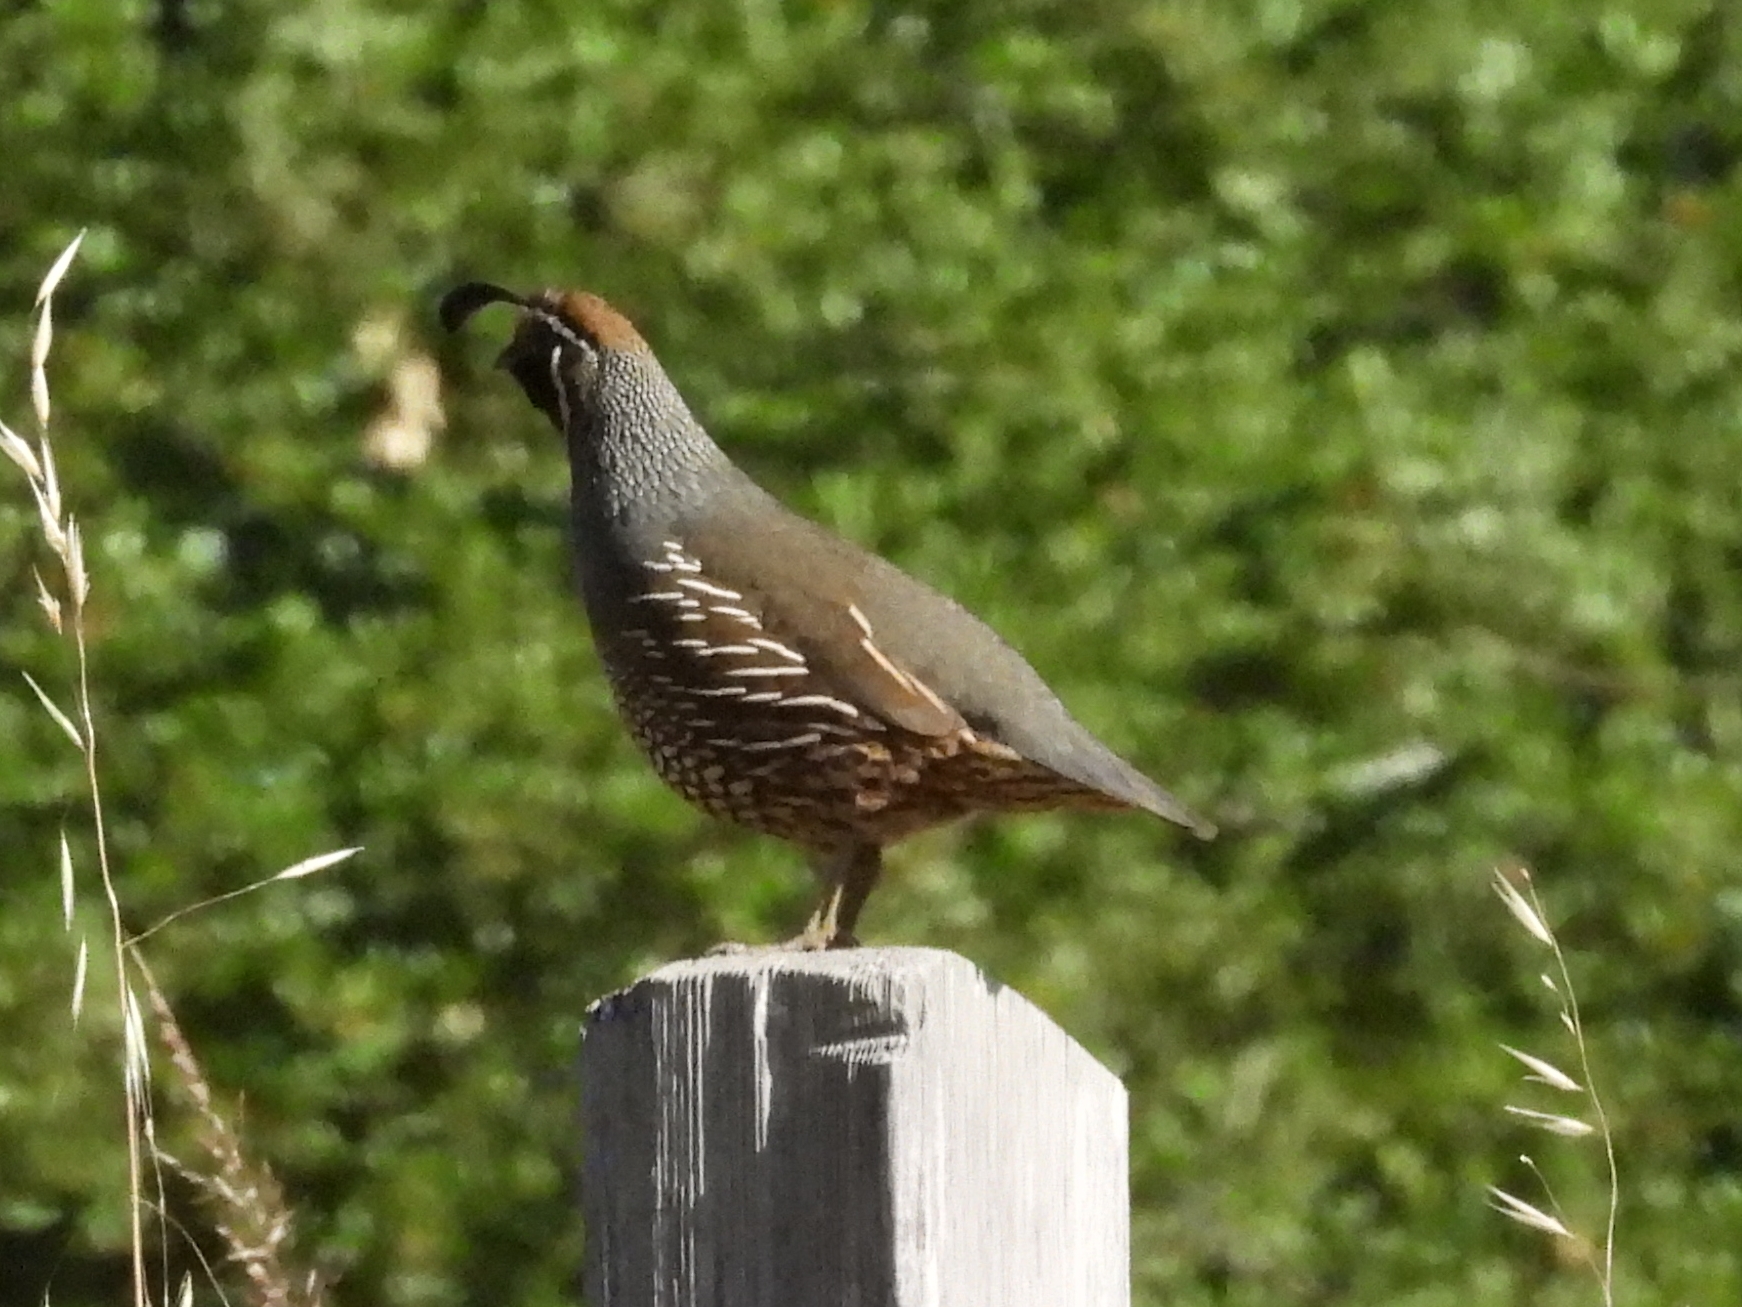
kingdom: Animalia
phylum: Chordata
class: Aves
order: Galliformes
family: Odontophoridae
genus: Callipepla
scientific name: Callipepla californica
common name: California quail
